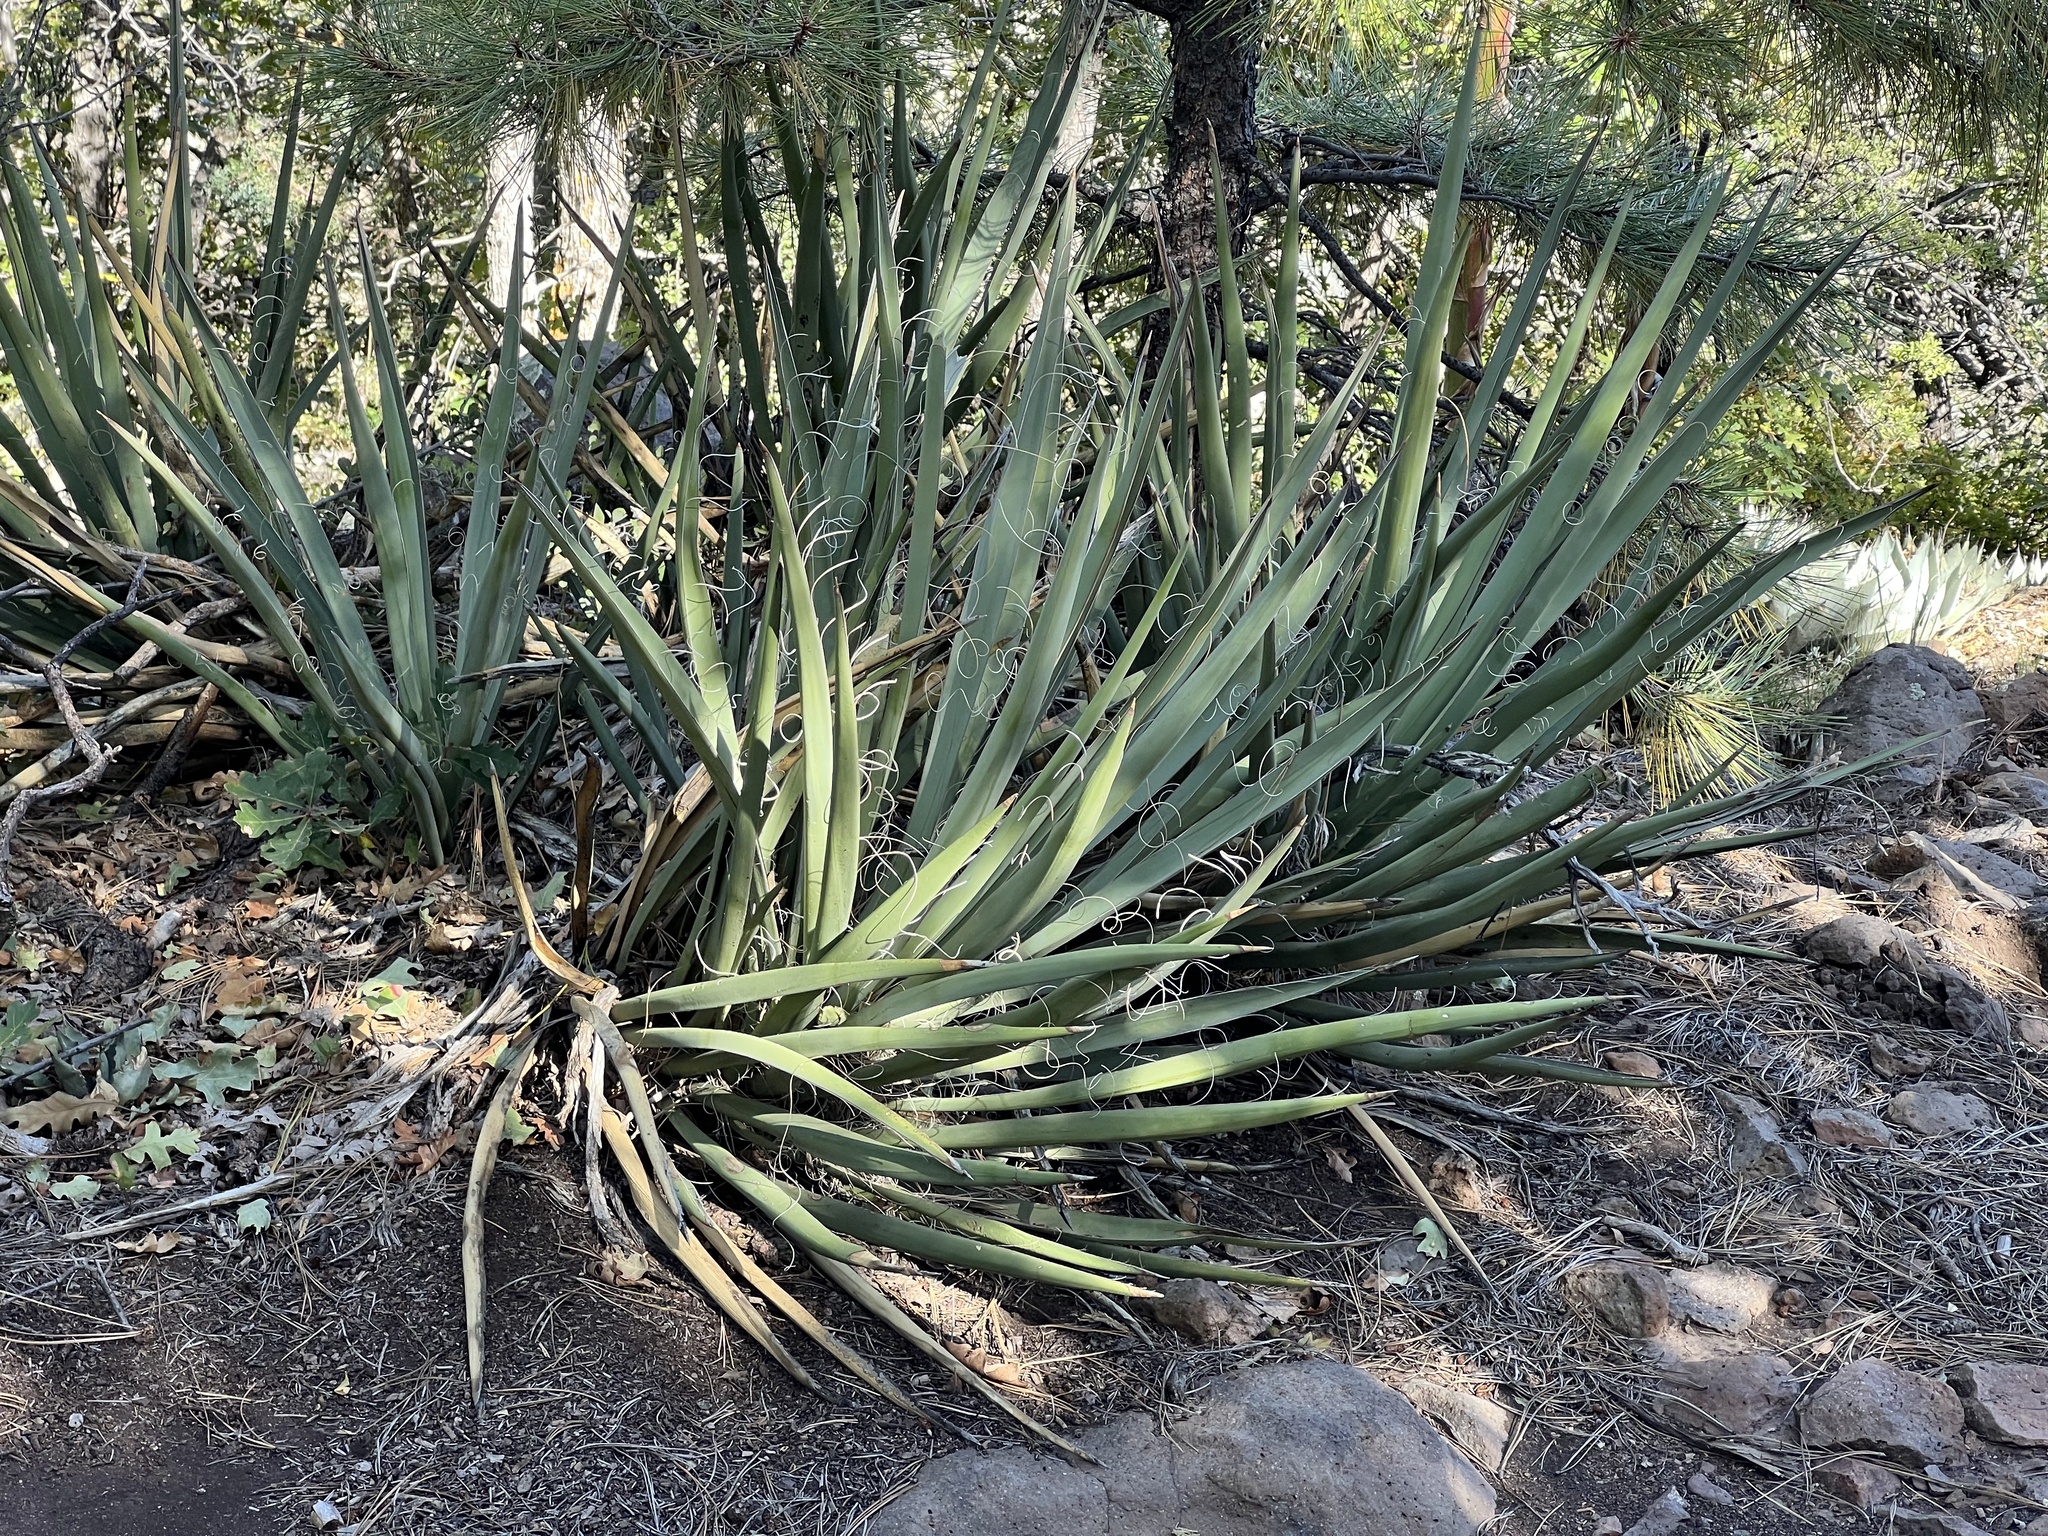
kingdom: Plantae
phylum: Tracheophyta
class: Liliopsida
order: Asparagales
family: Asparagaceae
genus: Yucca
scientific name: Yucca baccata
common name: Banana yucca
